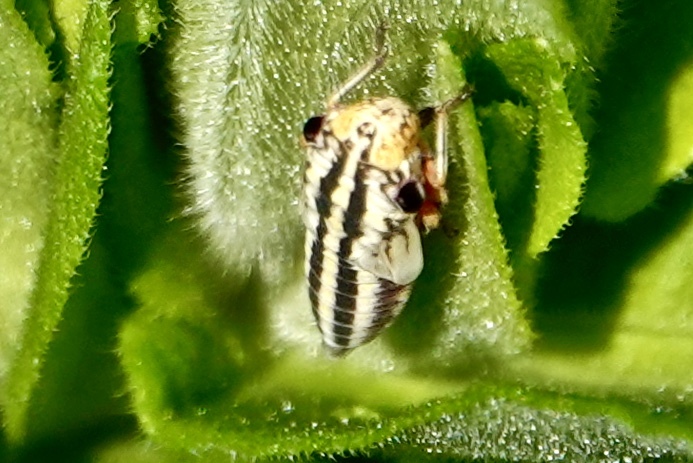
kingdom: Animalia
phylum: Arthropoda
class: Insecta
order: Hemiptera
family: Cicadellidae
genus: Cuerna
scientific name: Cuerna costalis
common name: Lateral-lined sharpshooter
